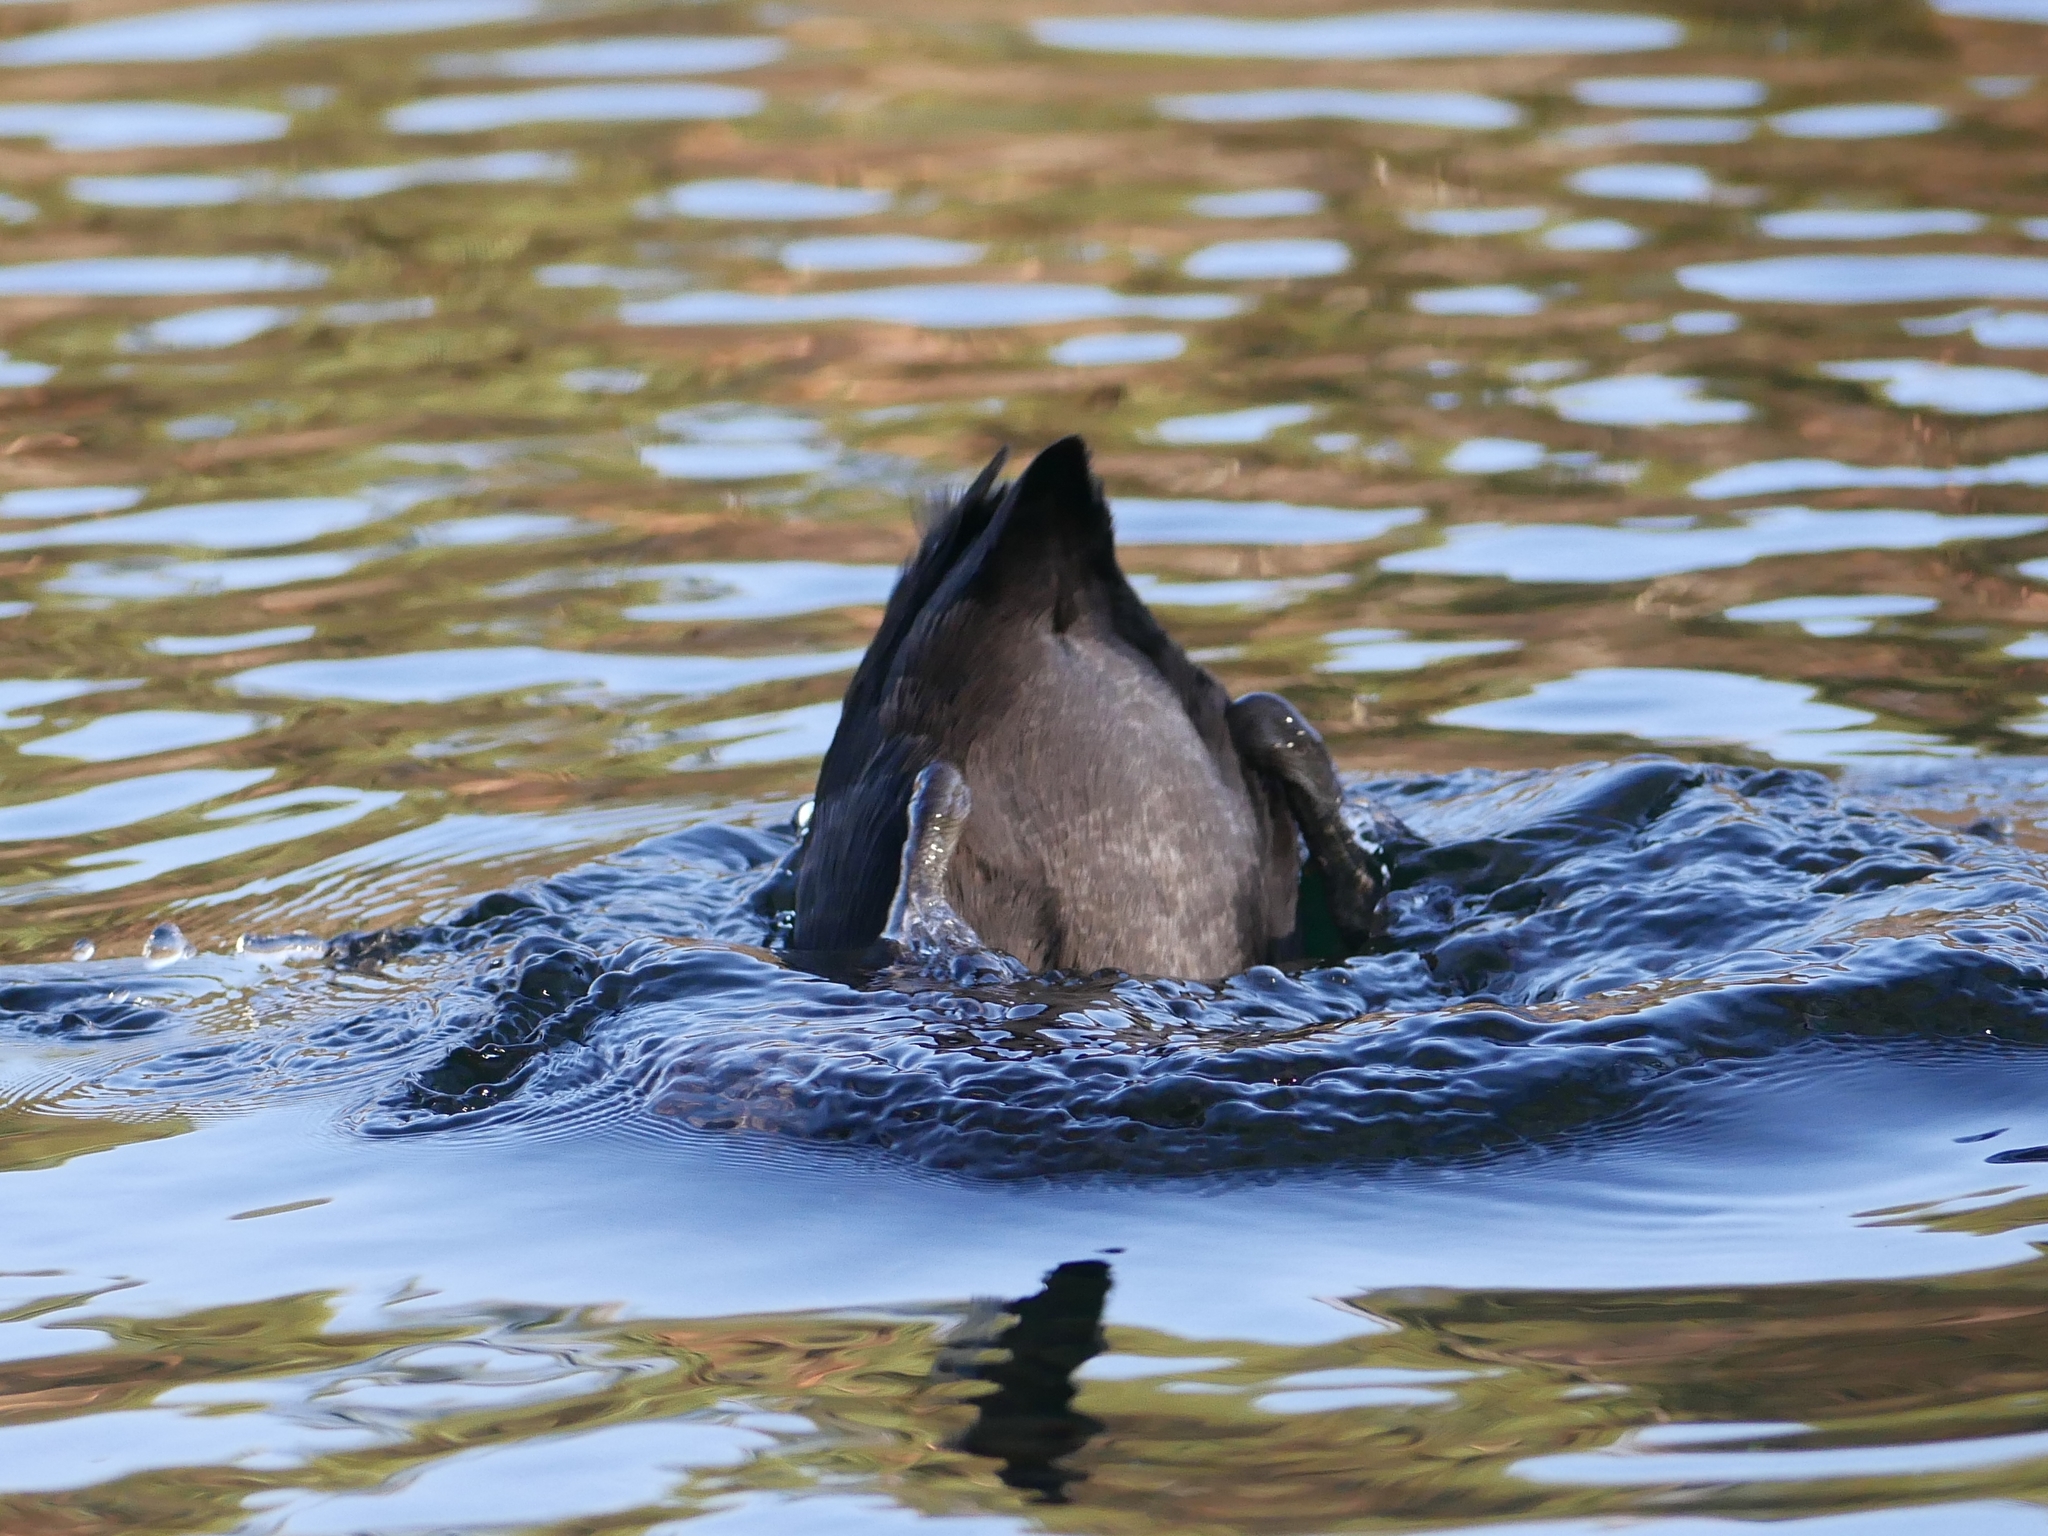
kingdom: Animalia
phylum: Chordata
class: Aves
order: Gruiformes
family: Rallidae
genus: Fulica
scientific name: Fulica atra
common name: Eurasian coot
